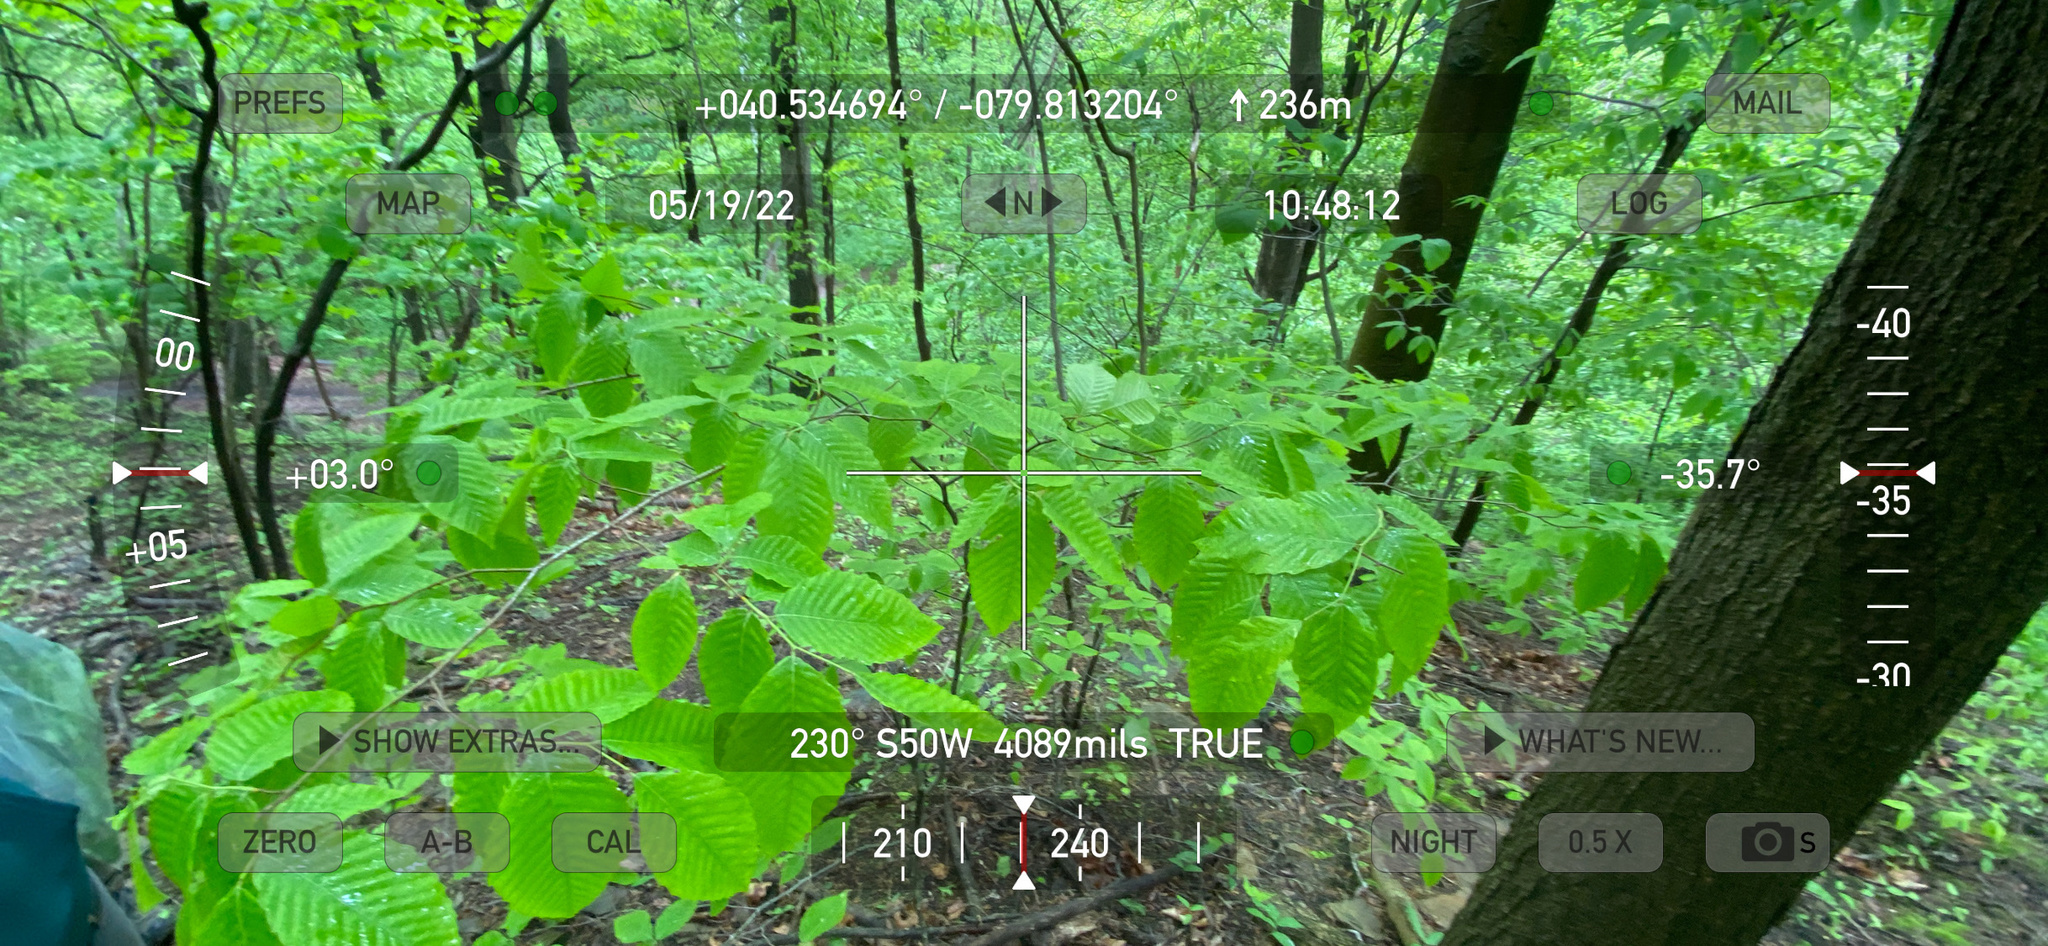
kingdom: Plantae
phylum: Tracheophyta
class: Magnoliopsida
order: Fagales
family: Fagaceae
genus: Fagus
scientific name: Fagus grandifolia
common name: American beech
